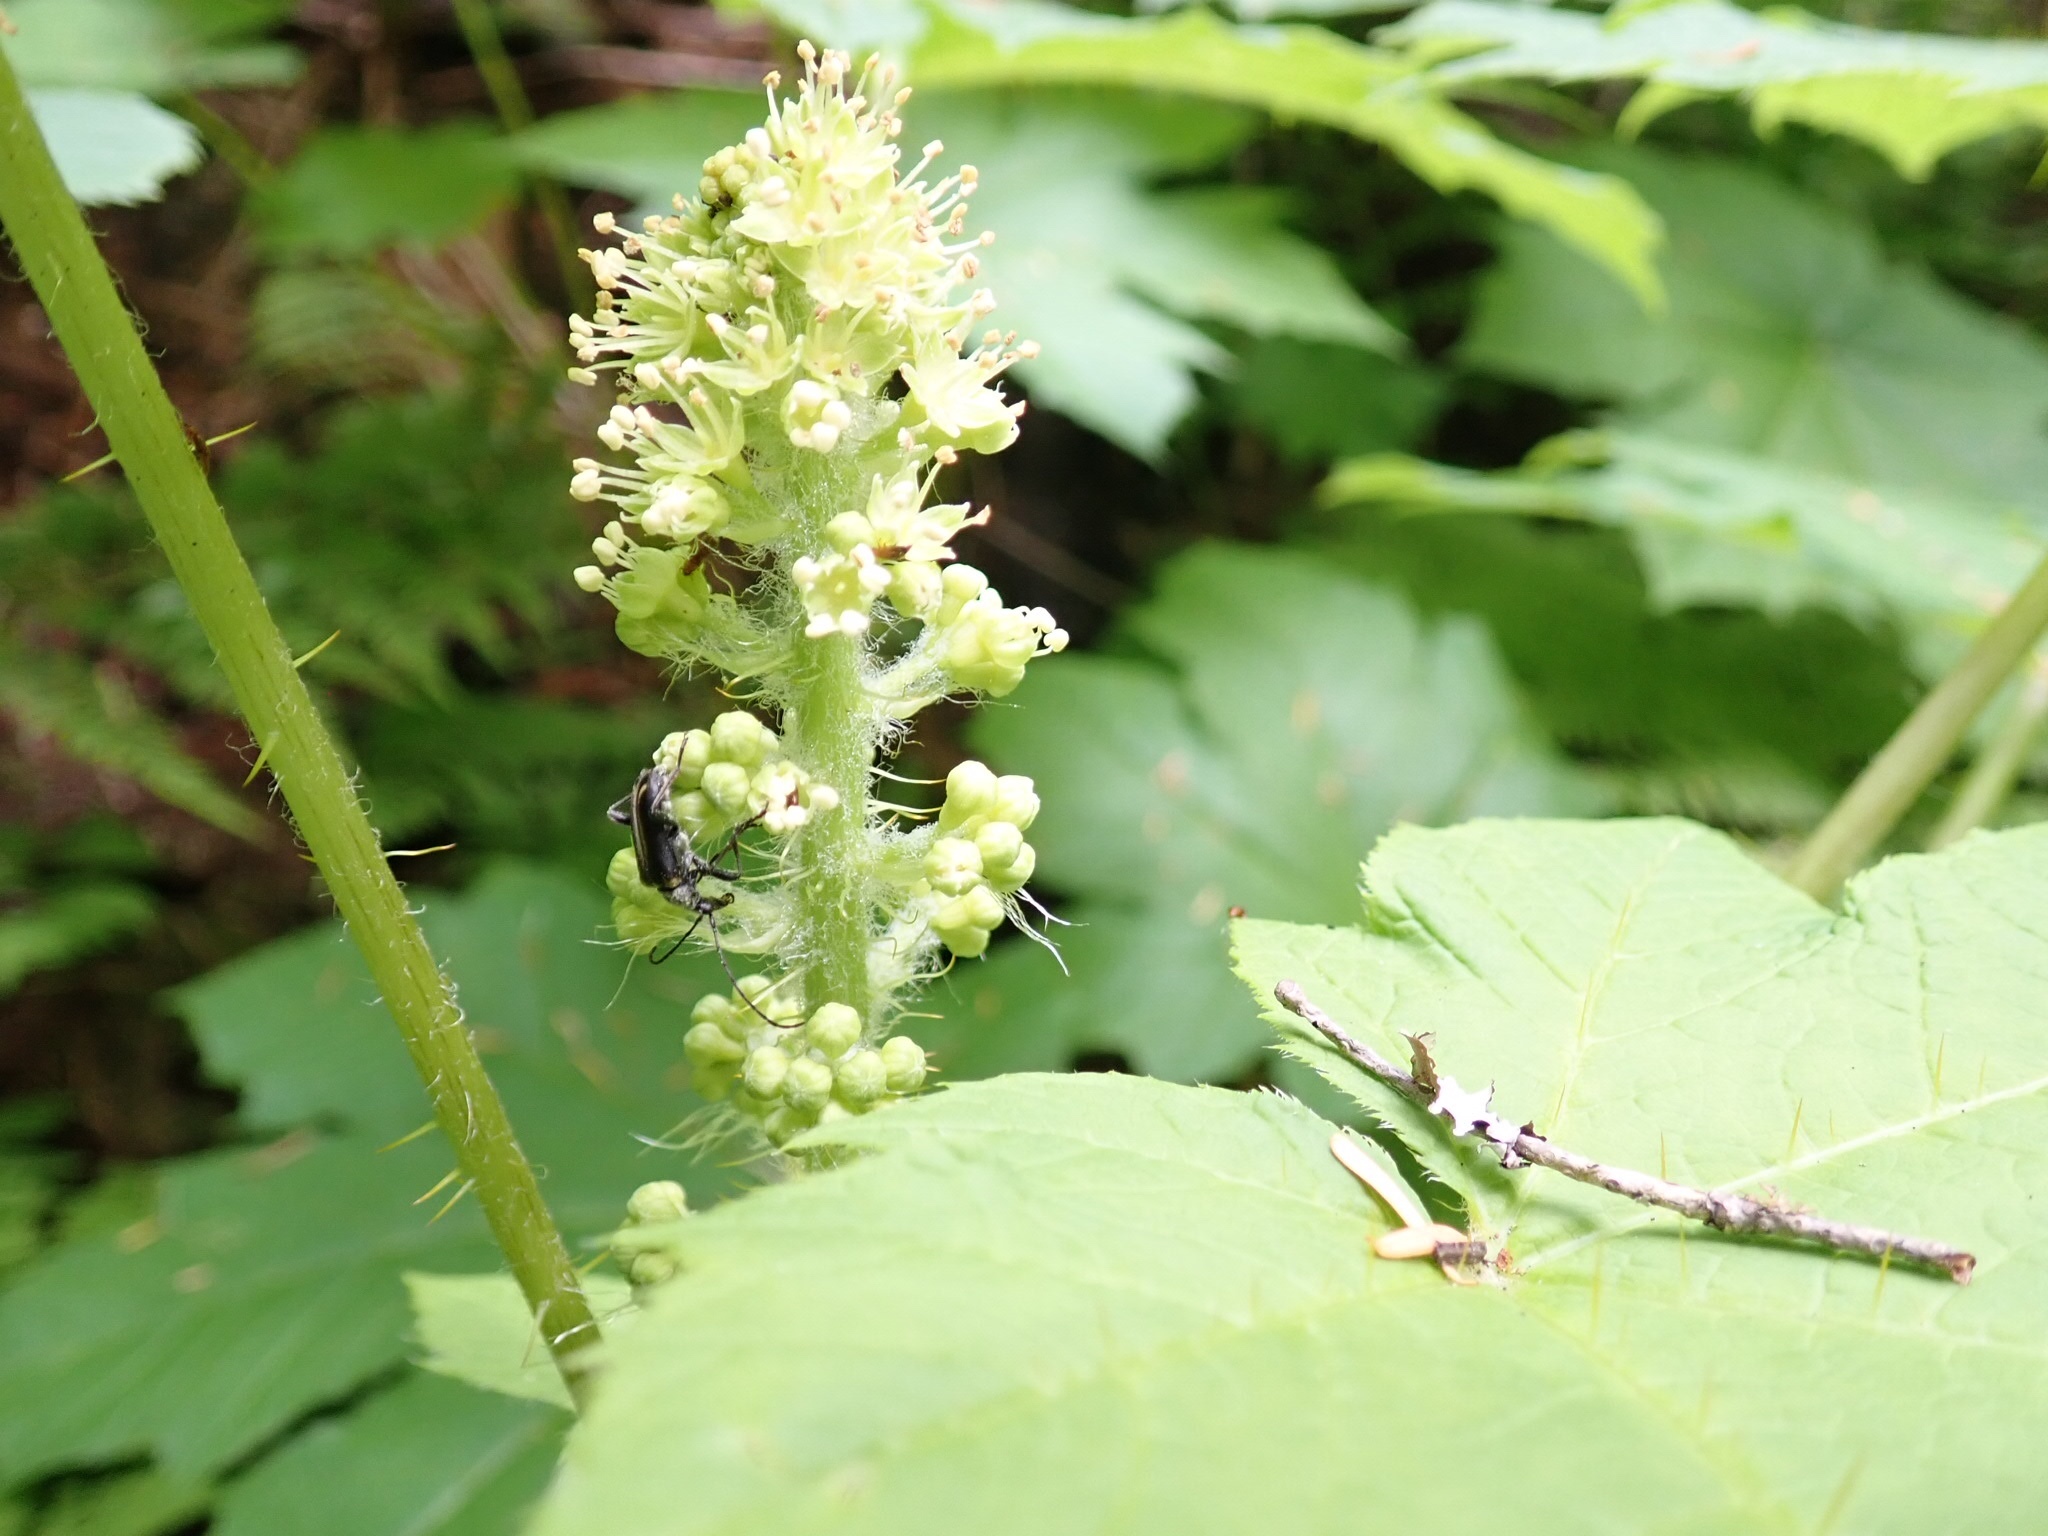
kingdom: Animalia
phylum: Arthropoda
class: Insecta
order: Coleoptera
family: Cerambycidae
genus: Evodinus
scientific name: Evodinus monticola
